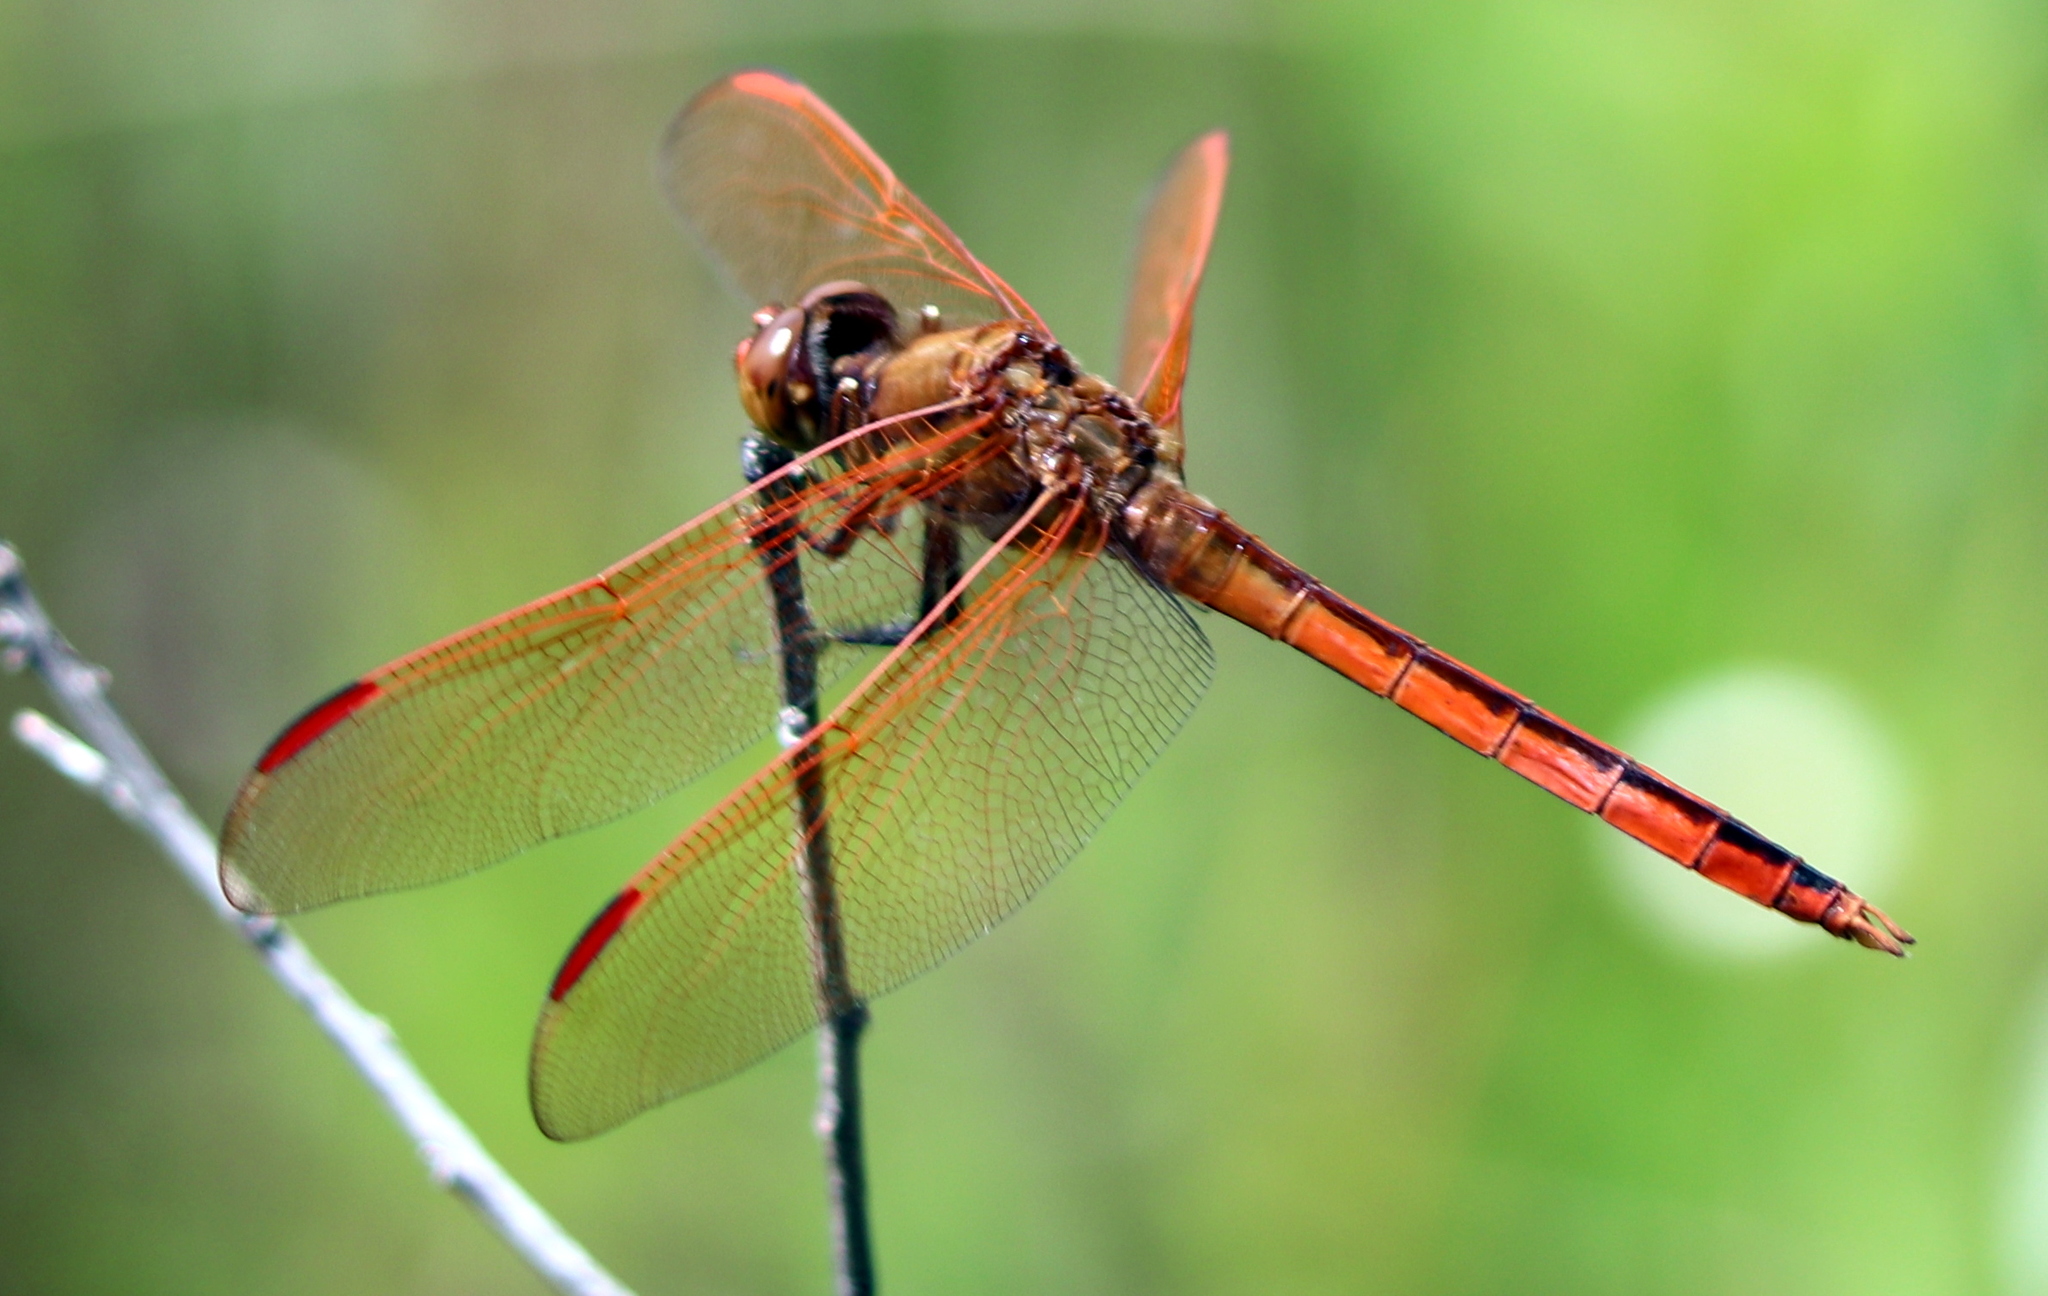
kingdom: Animalia
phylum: Arthropoda
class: Insecta
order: Odonata
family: Libellulidae
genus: Libellula
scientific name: Libellula auripennis
